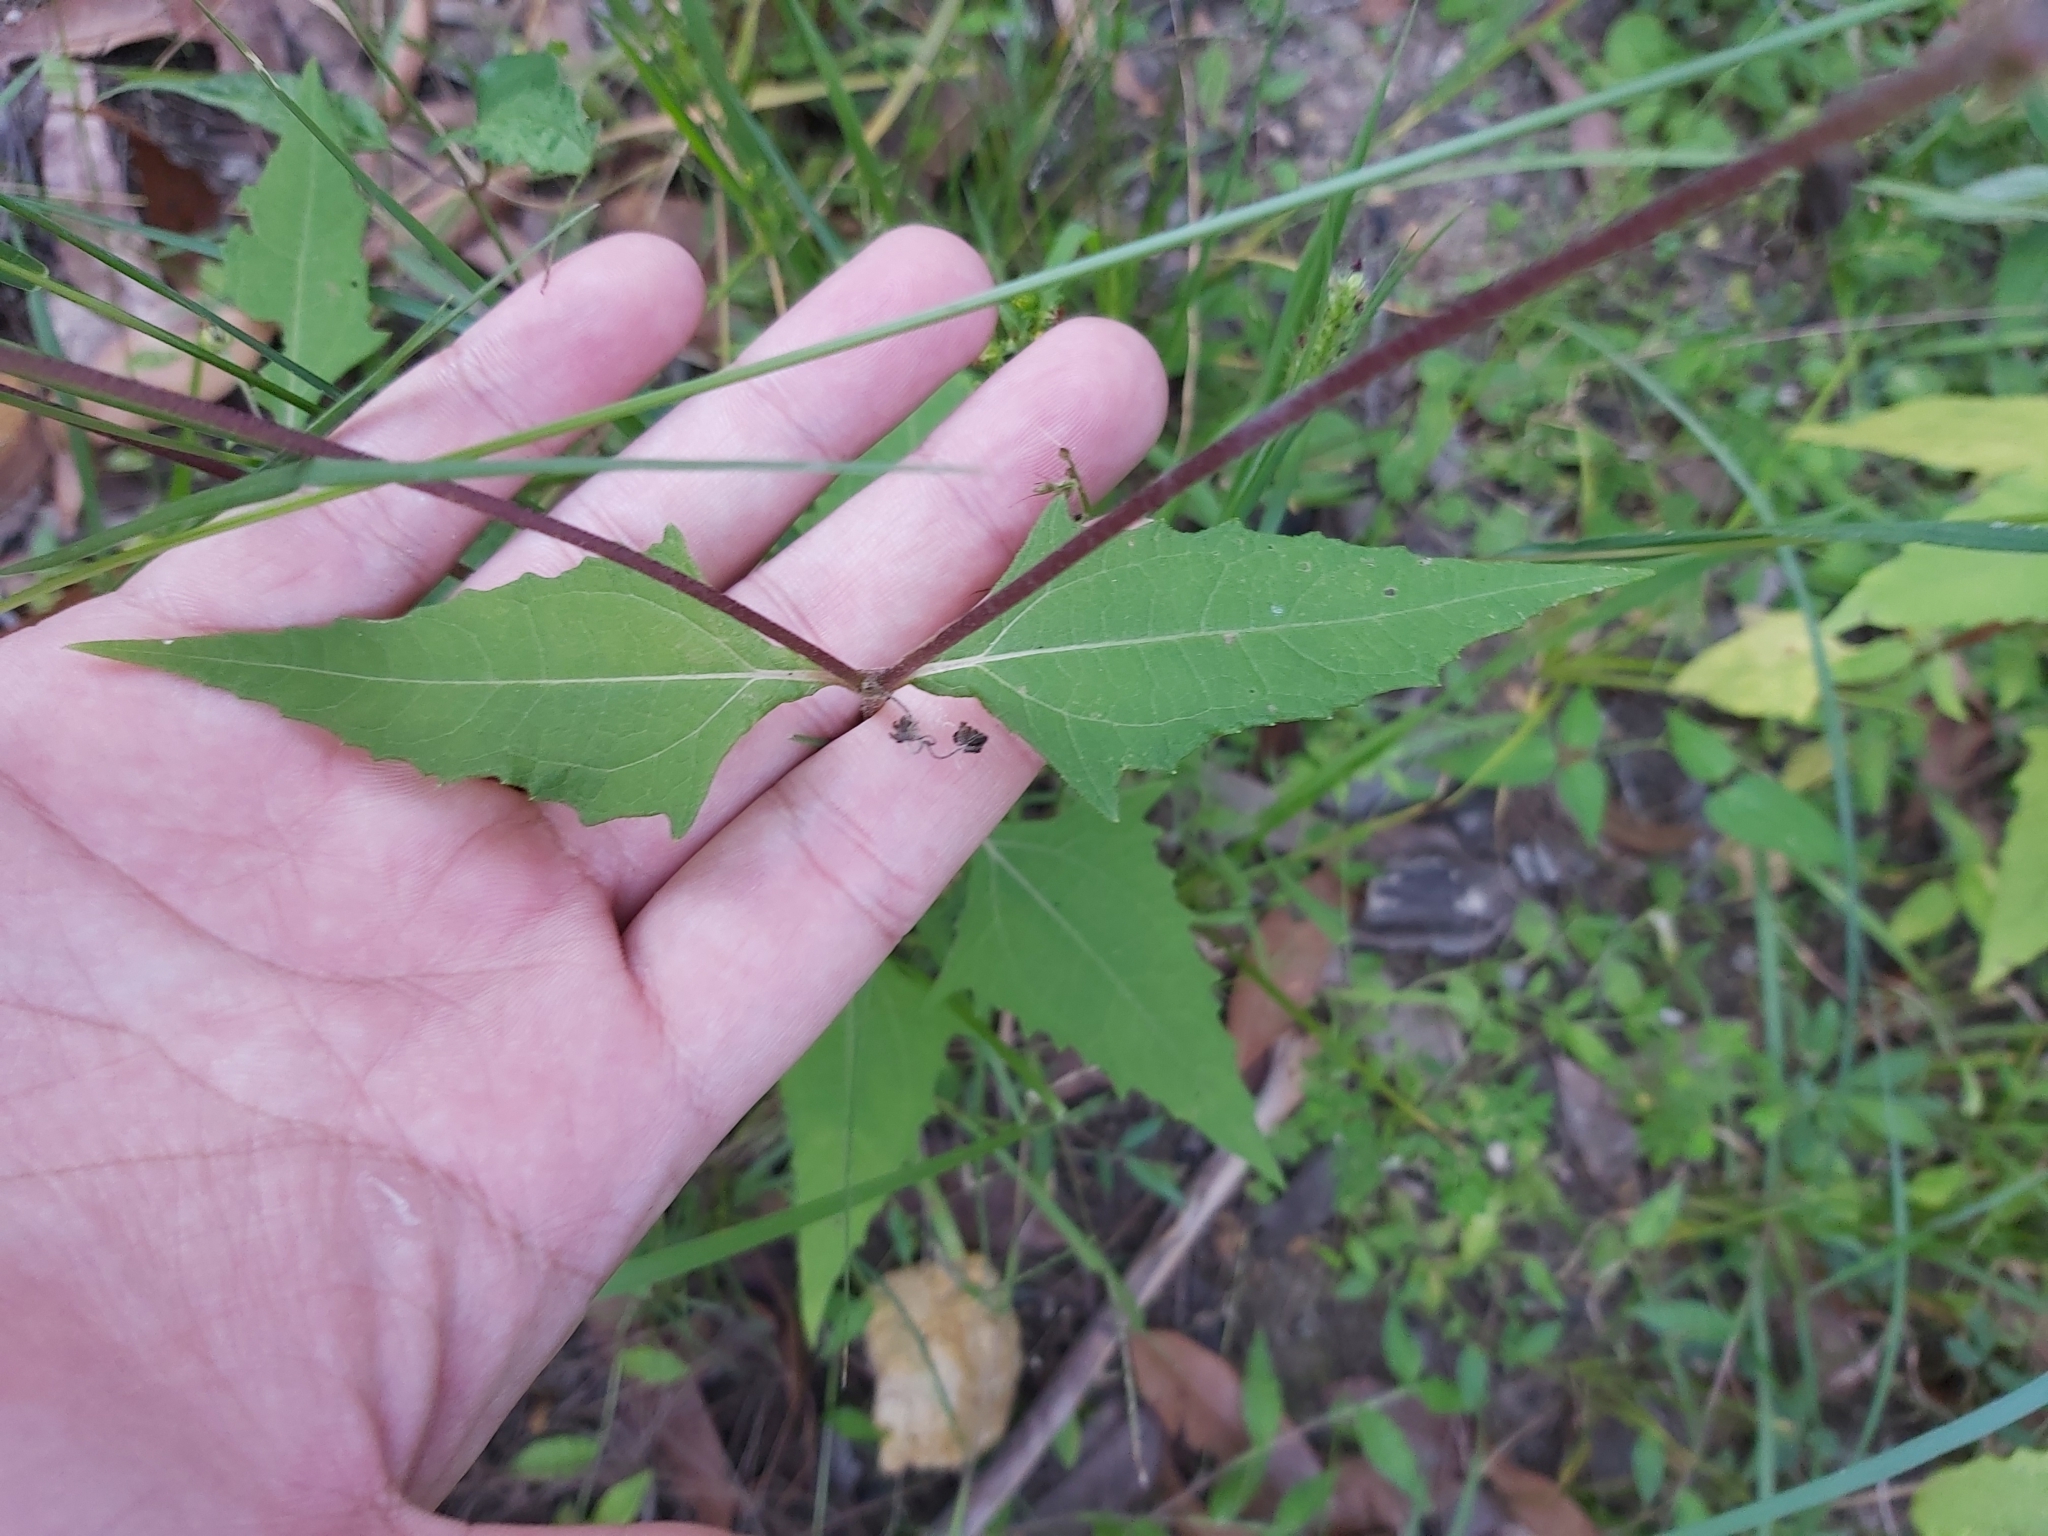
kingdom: Plantae
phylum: Tracheophyta
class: Magnoliopsida
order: Asterales
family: Asteraceae
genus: Sigesbeckia
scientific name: Sigesbeckia orientalis
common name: Eastern st paul's-wort
